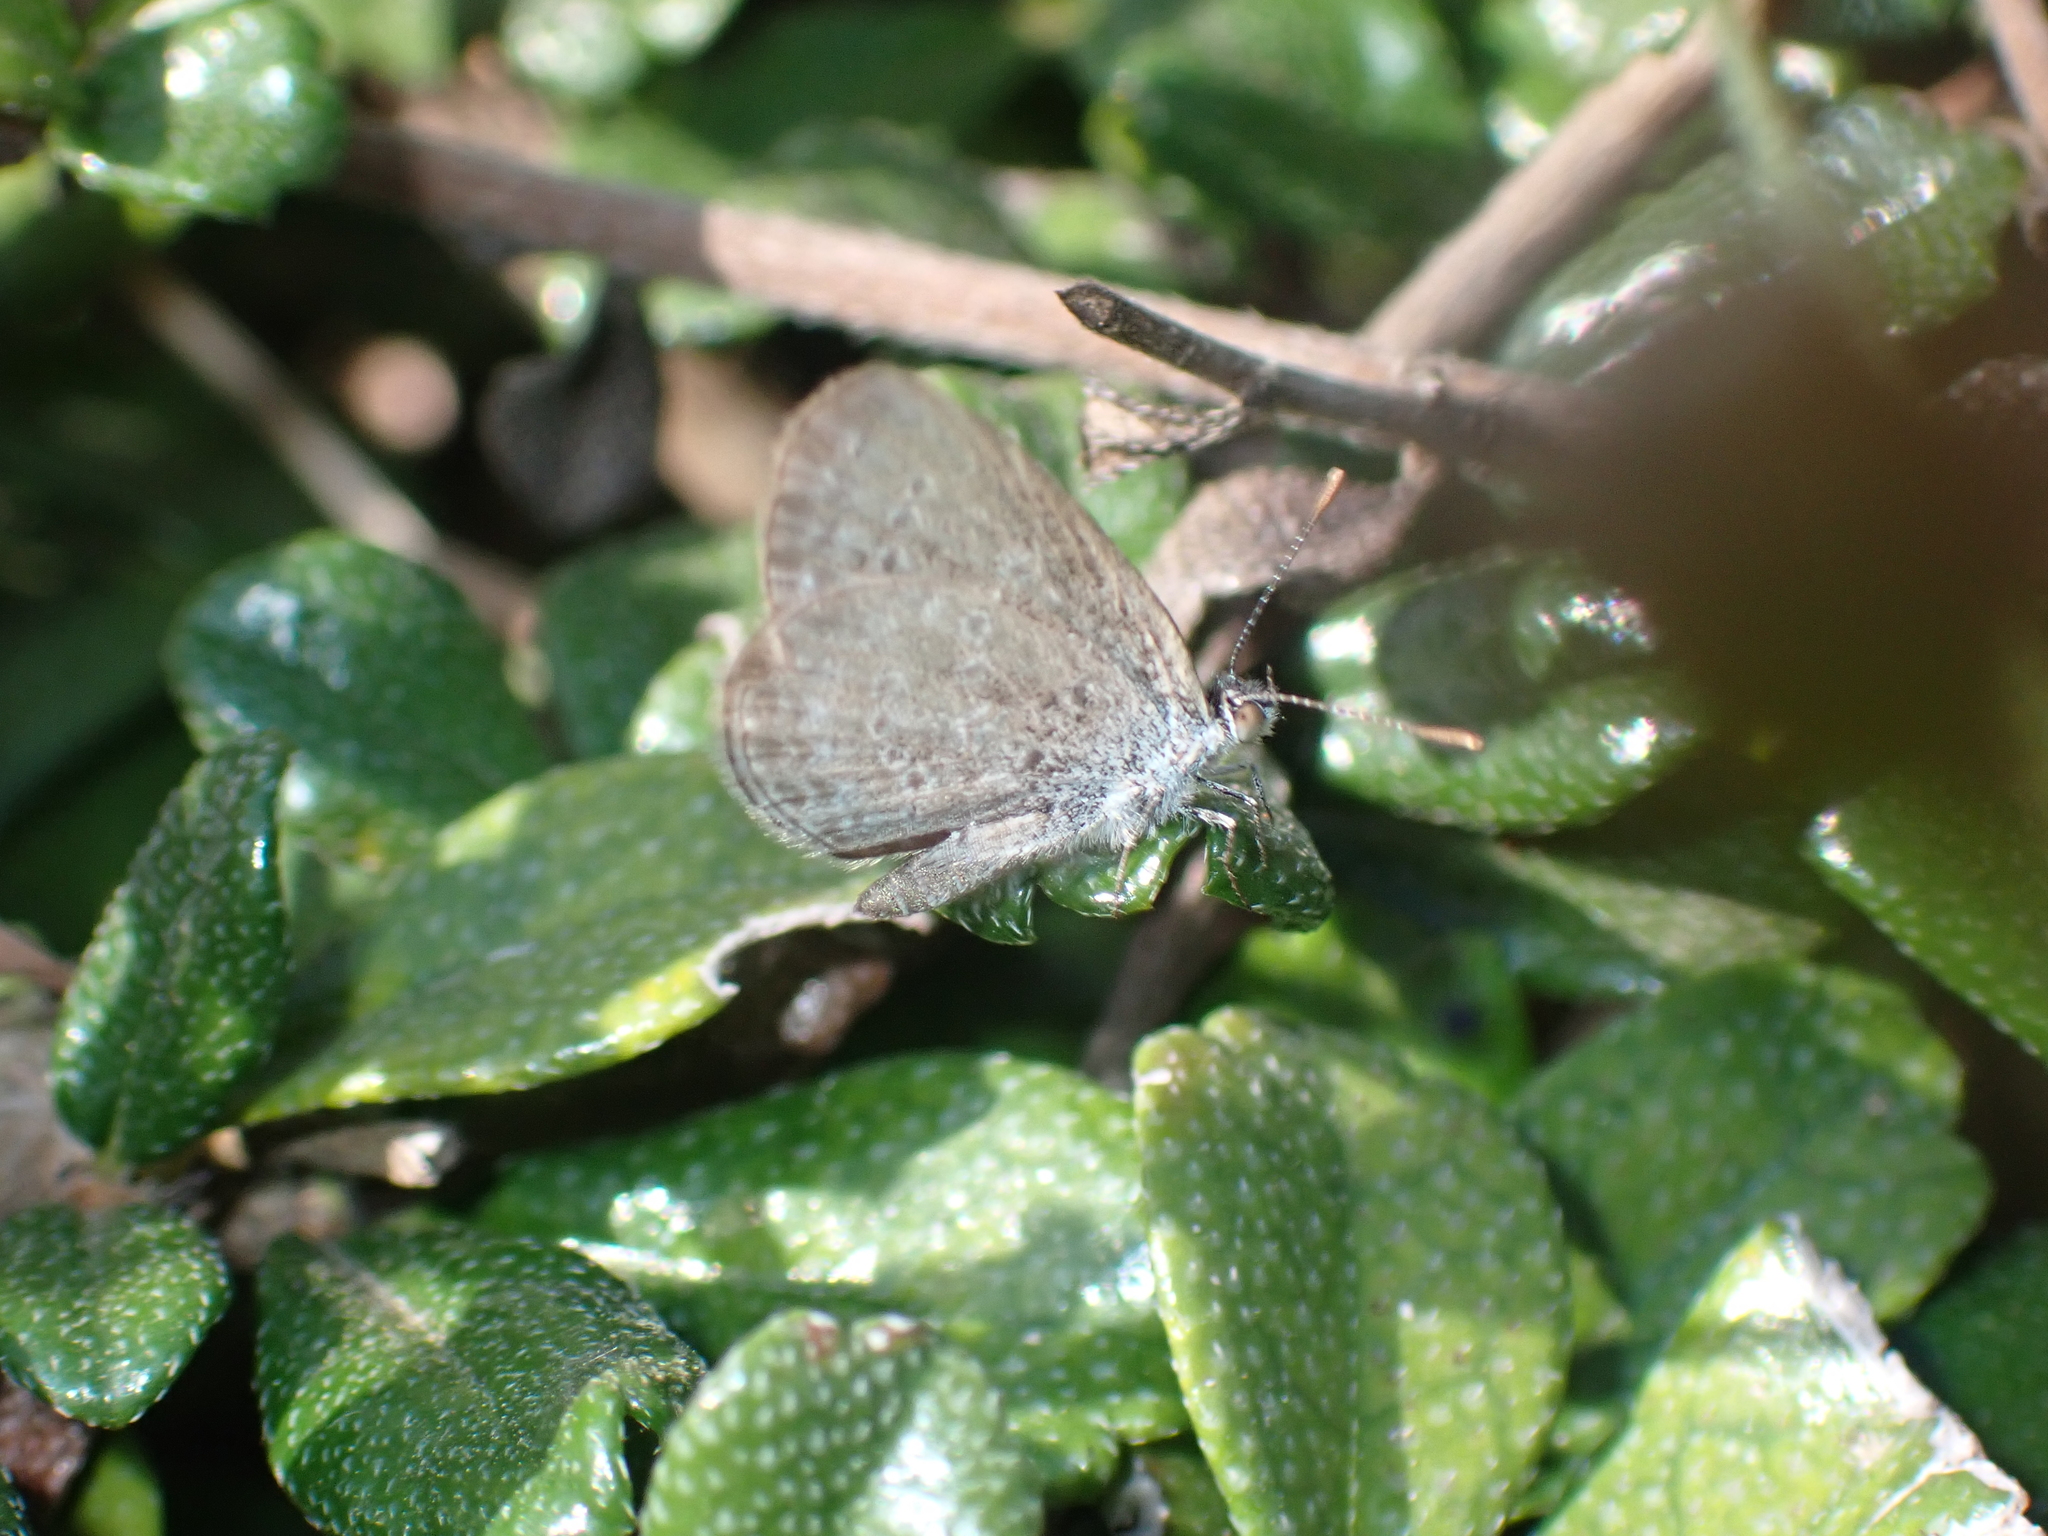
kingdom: Animalia
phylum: Arthropoda
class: Insecta
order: Lepidoptera
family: Lycaenidae
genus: Zizina
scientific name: Zizina otis
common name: Lesser grass blue
